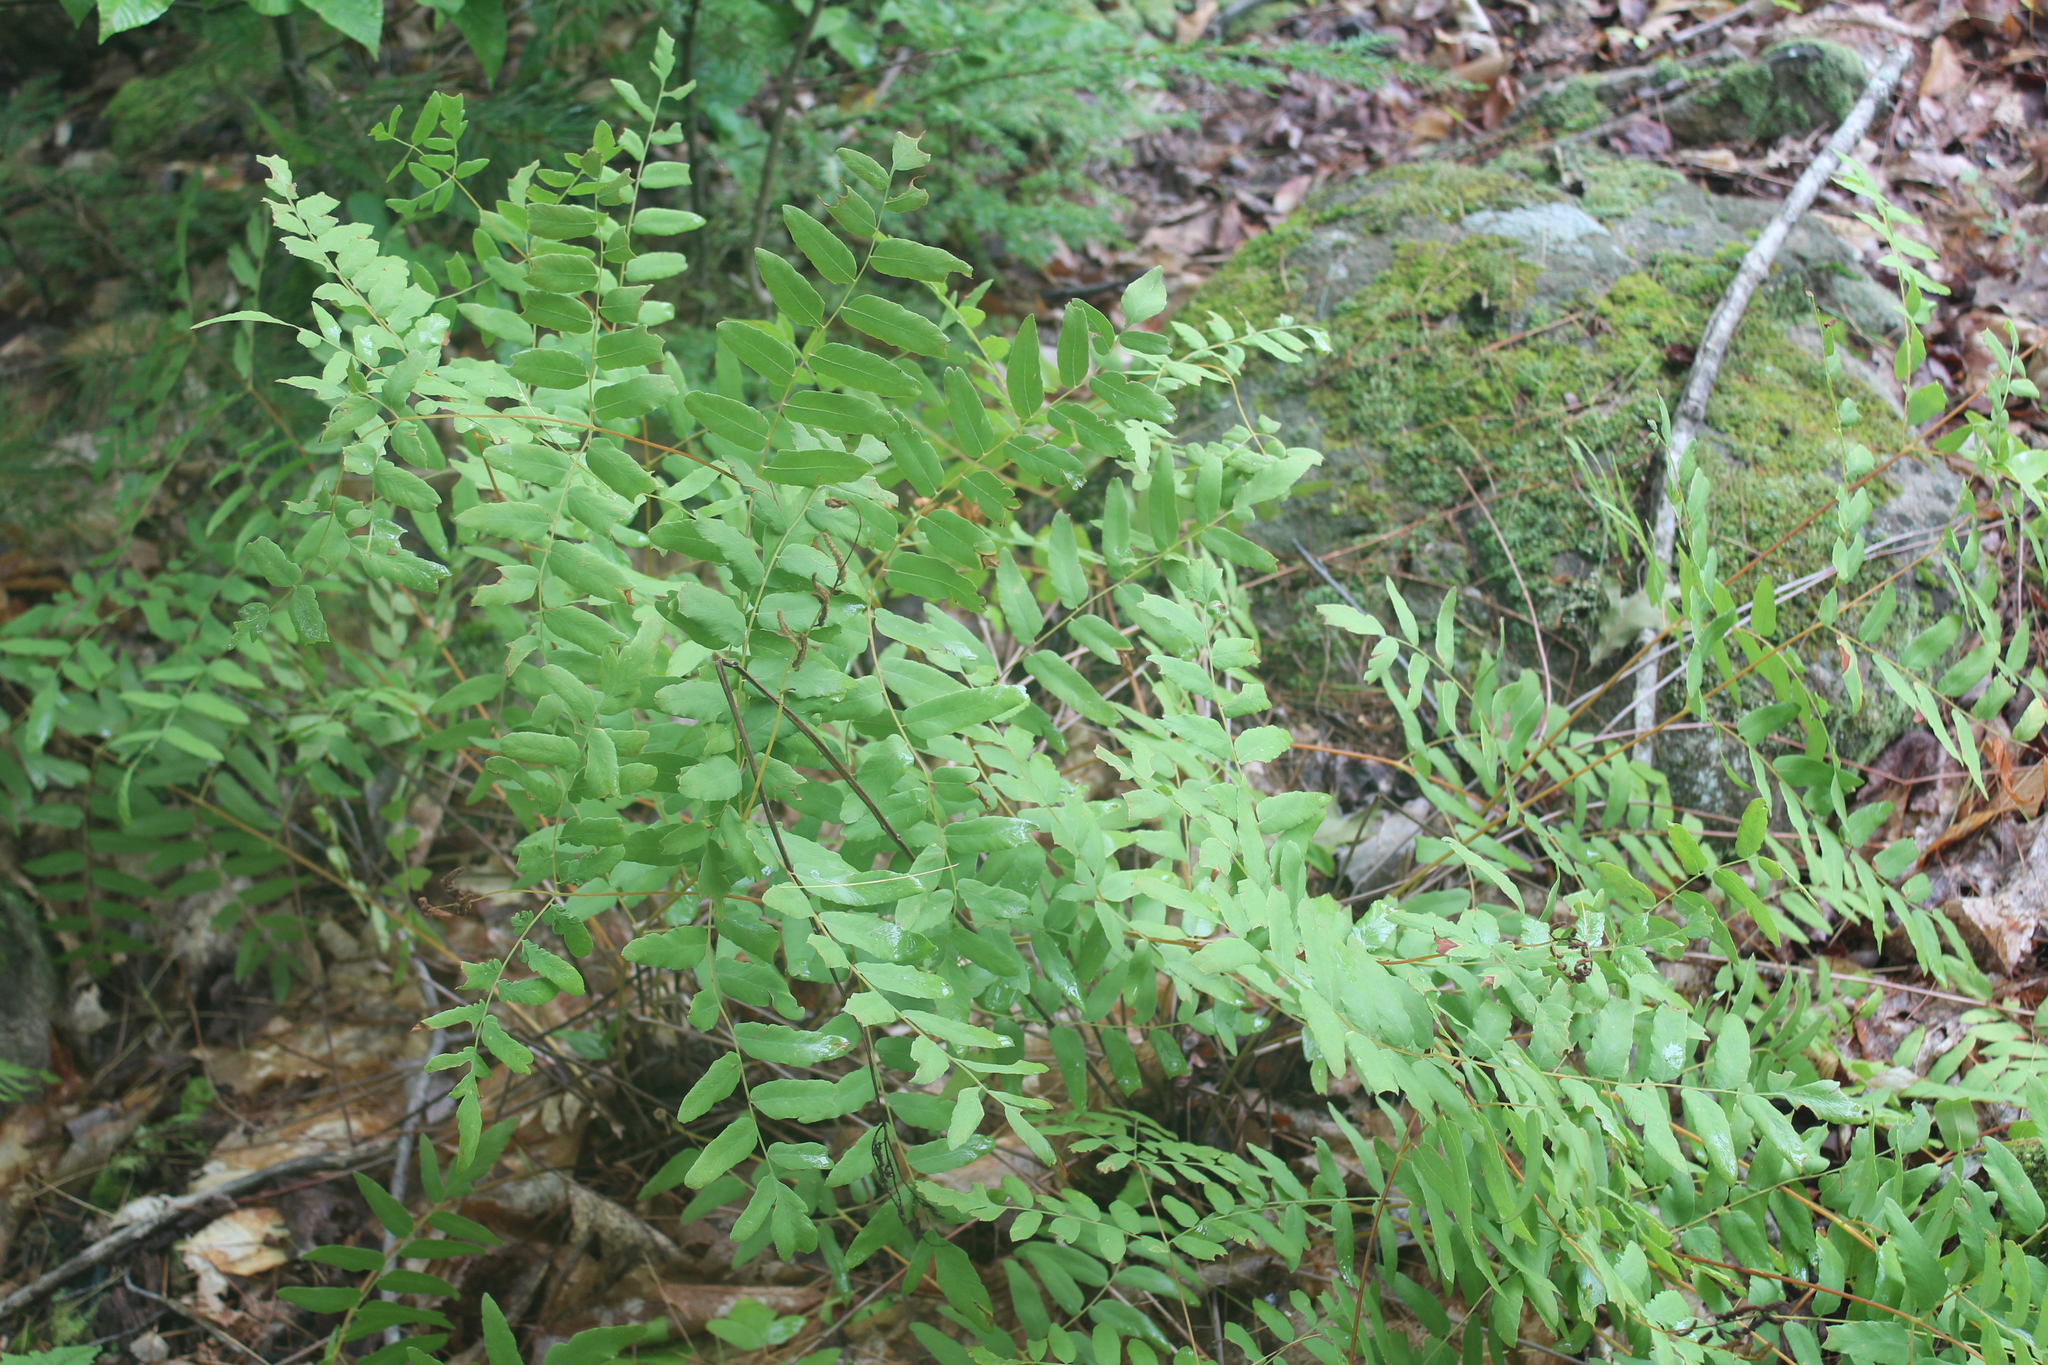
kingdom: Plantae
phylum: Tracheophyta
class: Polypodiopsida
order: Osmundales
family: Osmundaceae
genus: Osmunda
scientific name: Osmunda spectabilis
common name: American royal fern
